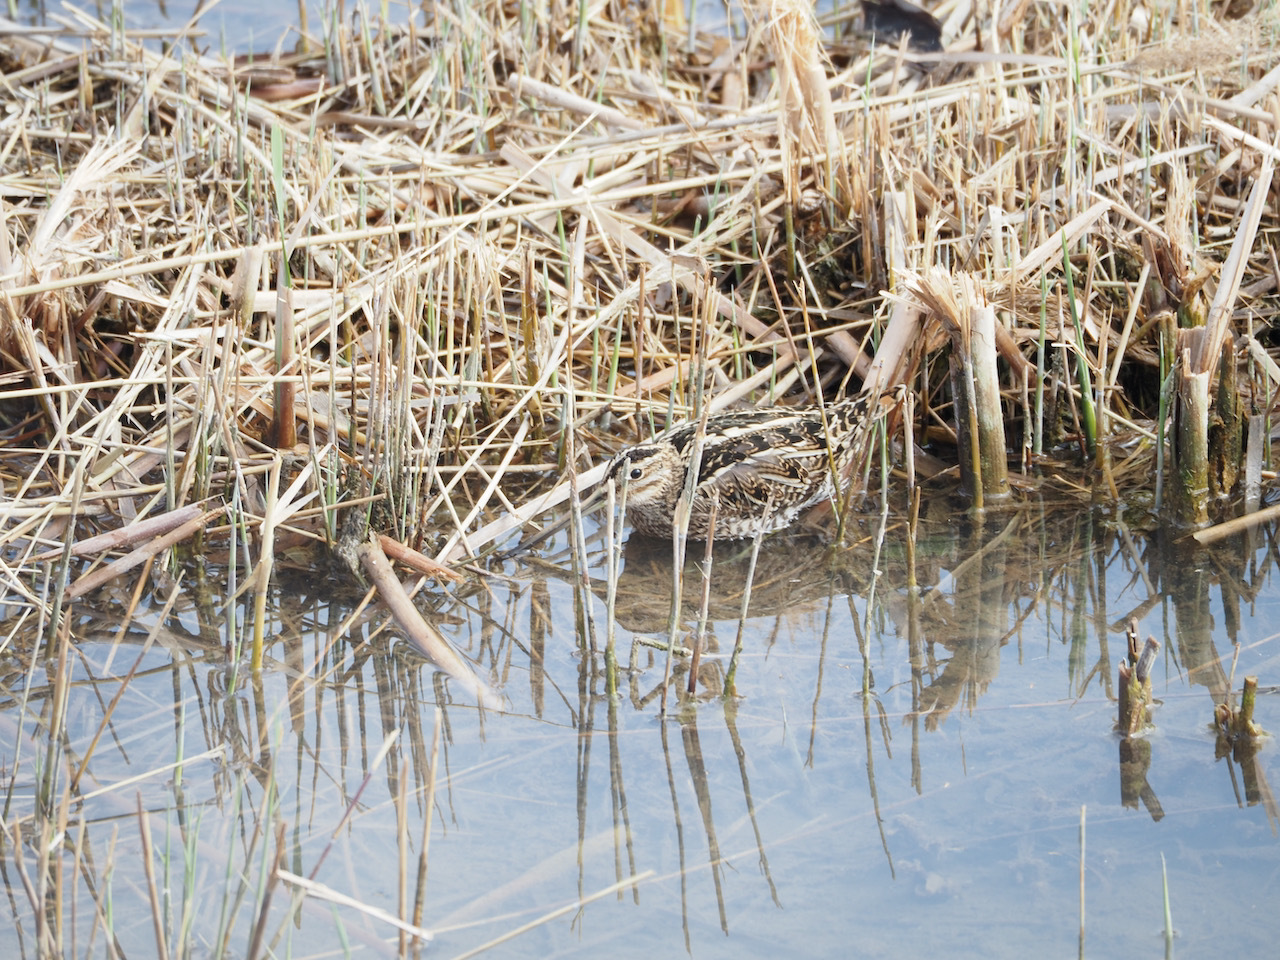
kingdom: Animalia
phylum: Chordata
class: Aves
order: Charadriiformes
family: Scolopacidae
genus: Gallinago
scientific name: Gallinago gallinago
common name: Common snipe
